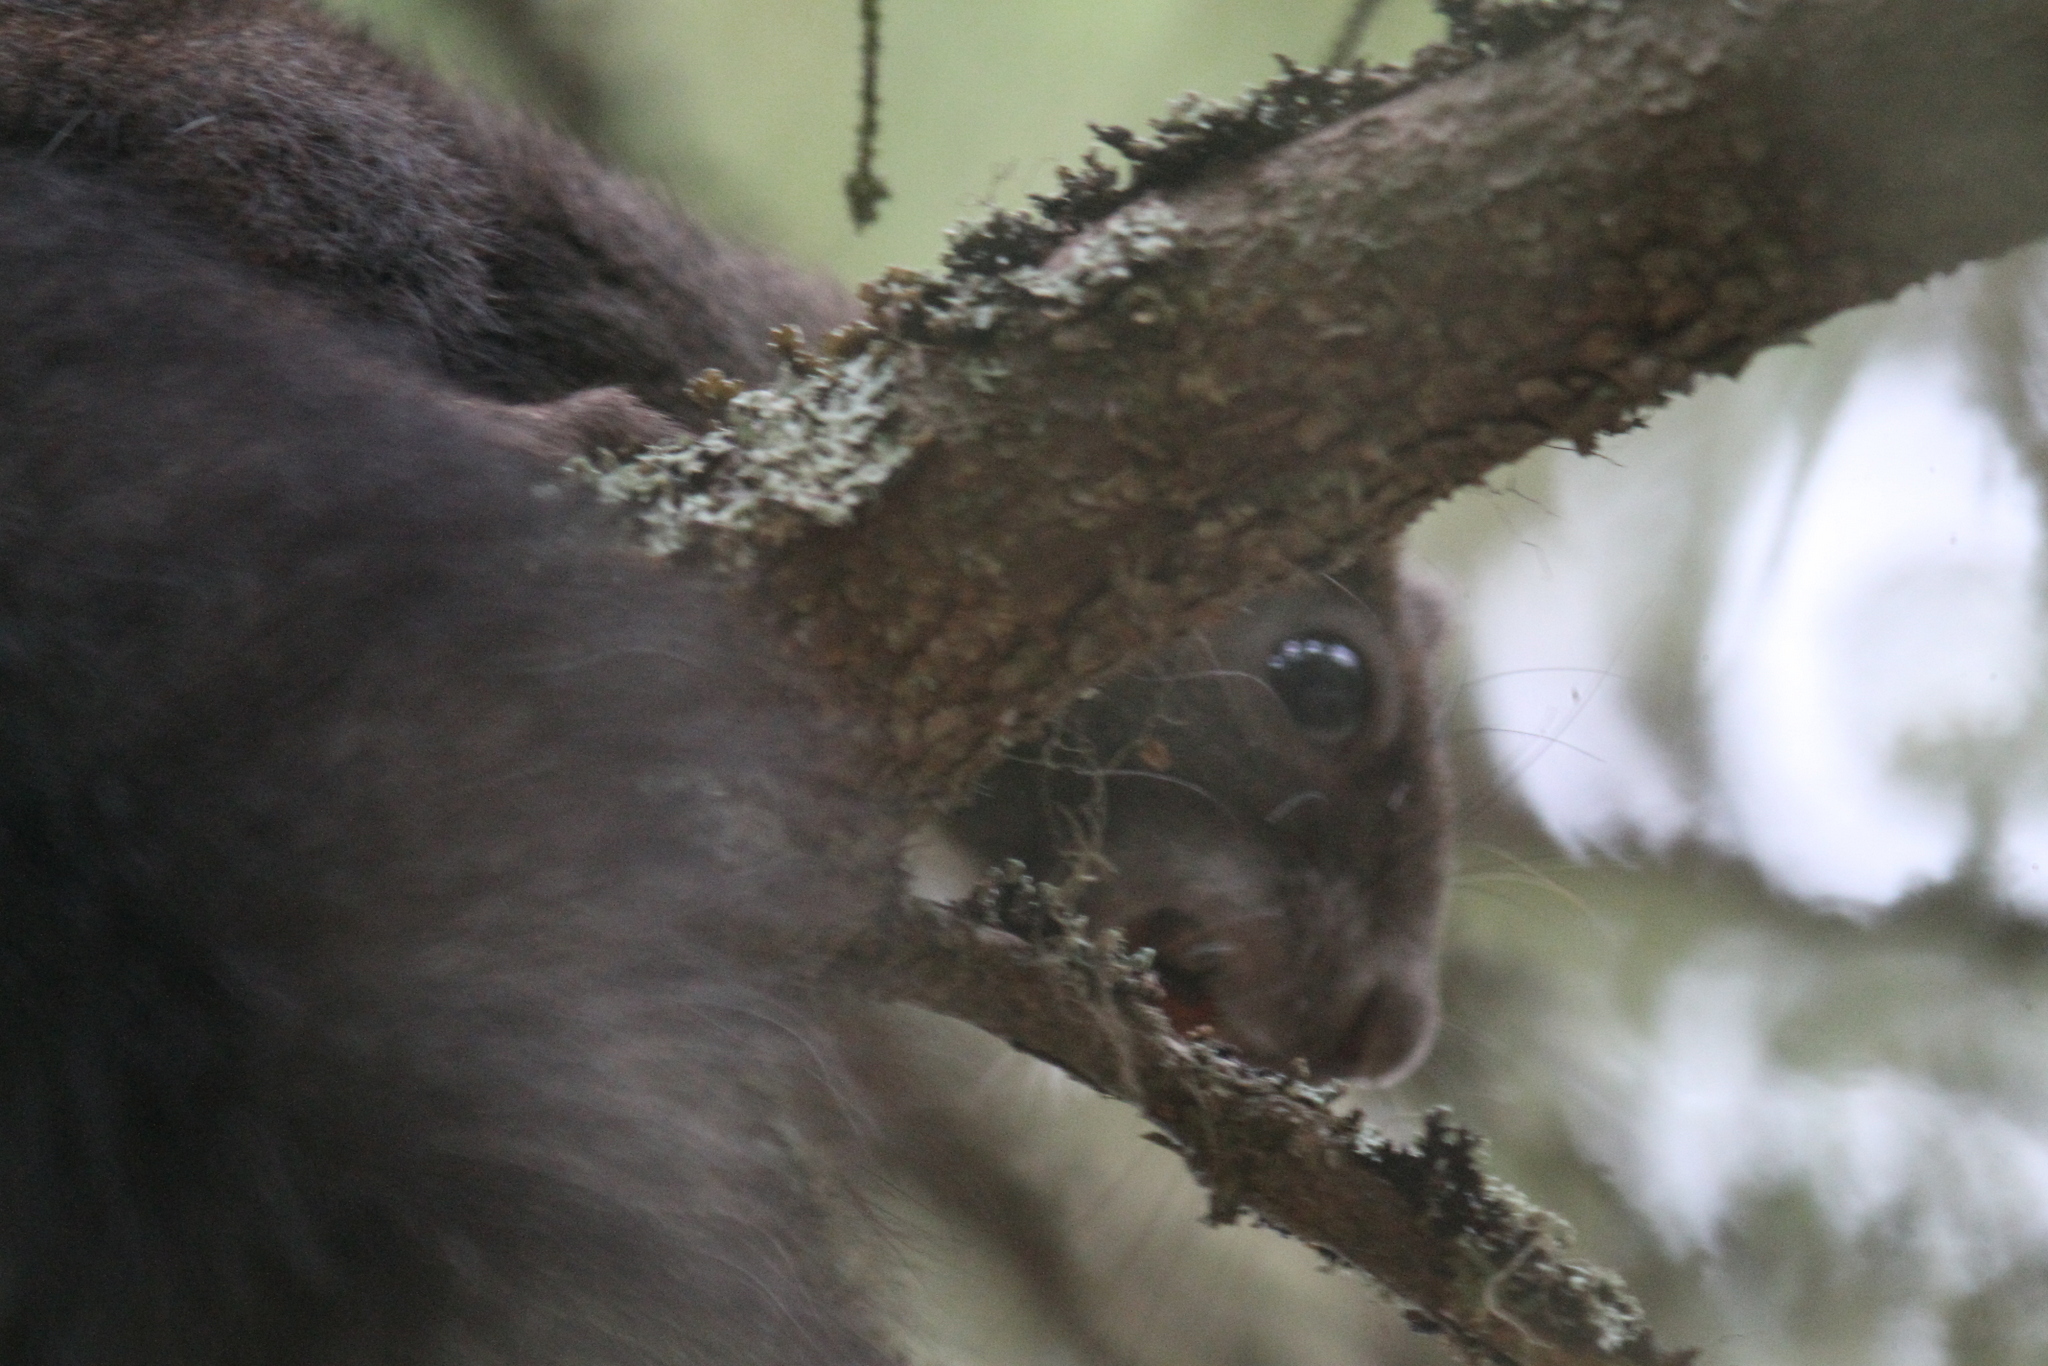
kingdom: Animalia
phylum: Chordata
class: Mammalia
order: Rodentia
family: Sciuridae
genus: Sciurus
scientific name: Sciurus vulgaris
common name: Eurasian red squirrel
